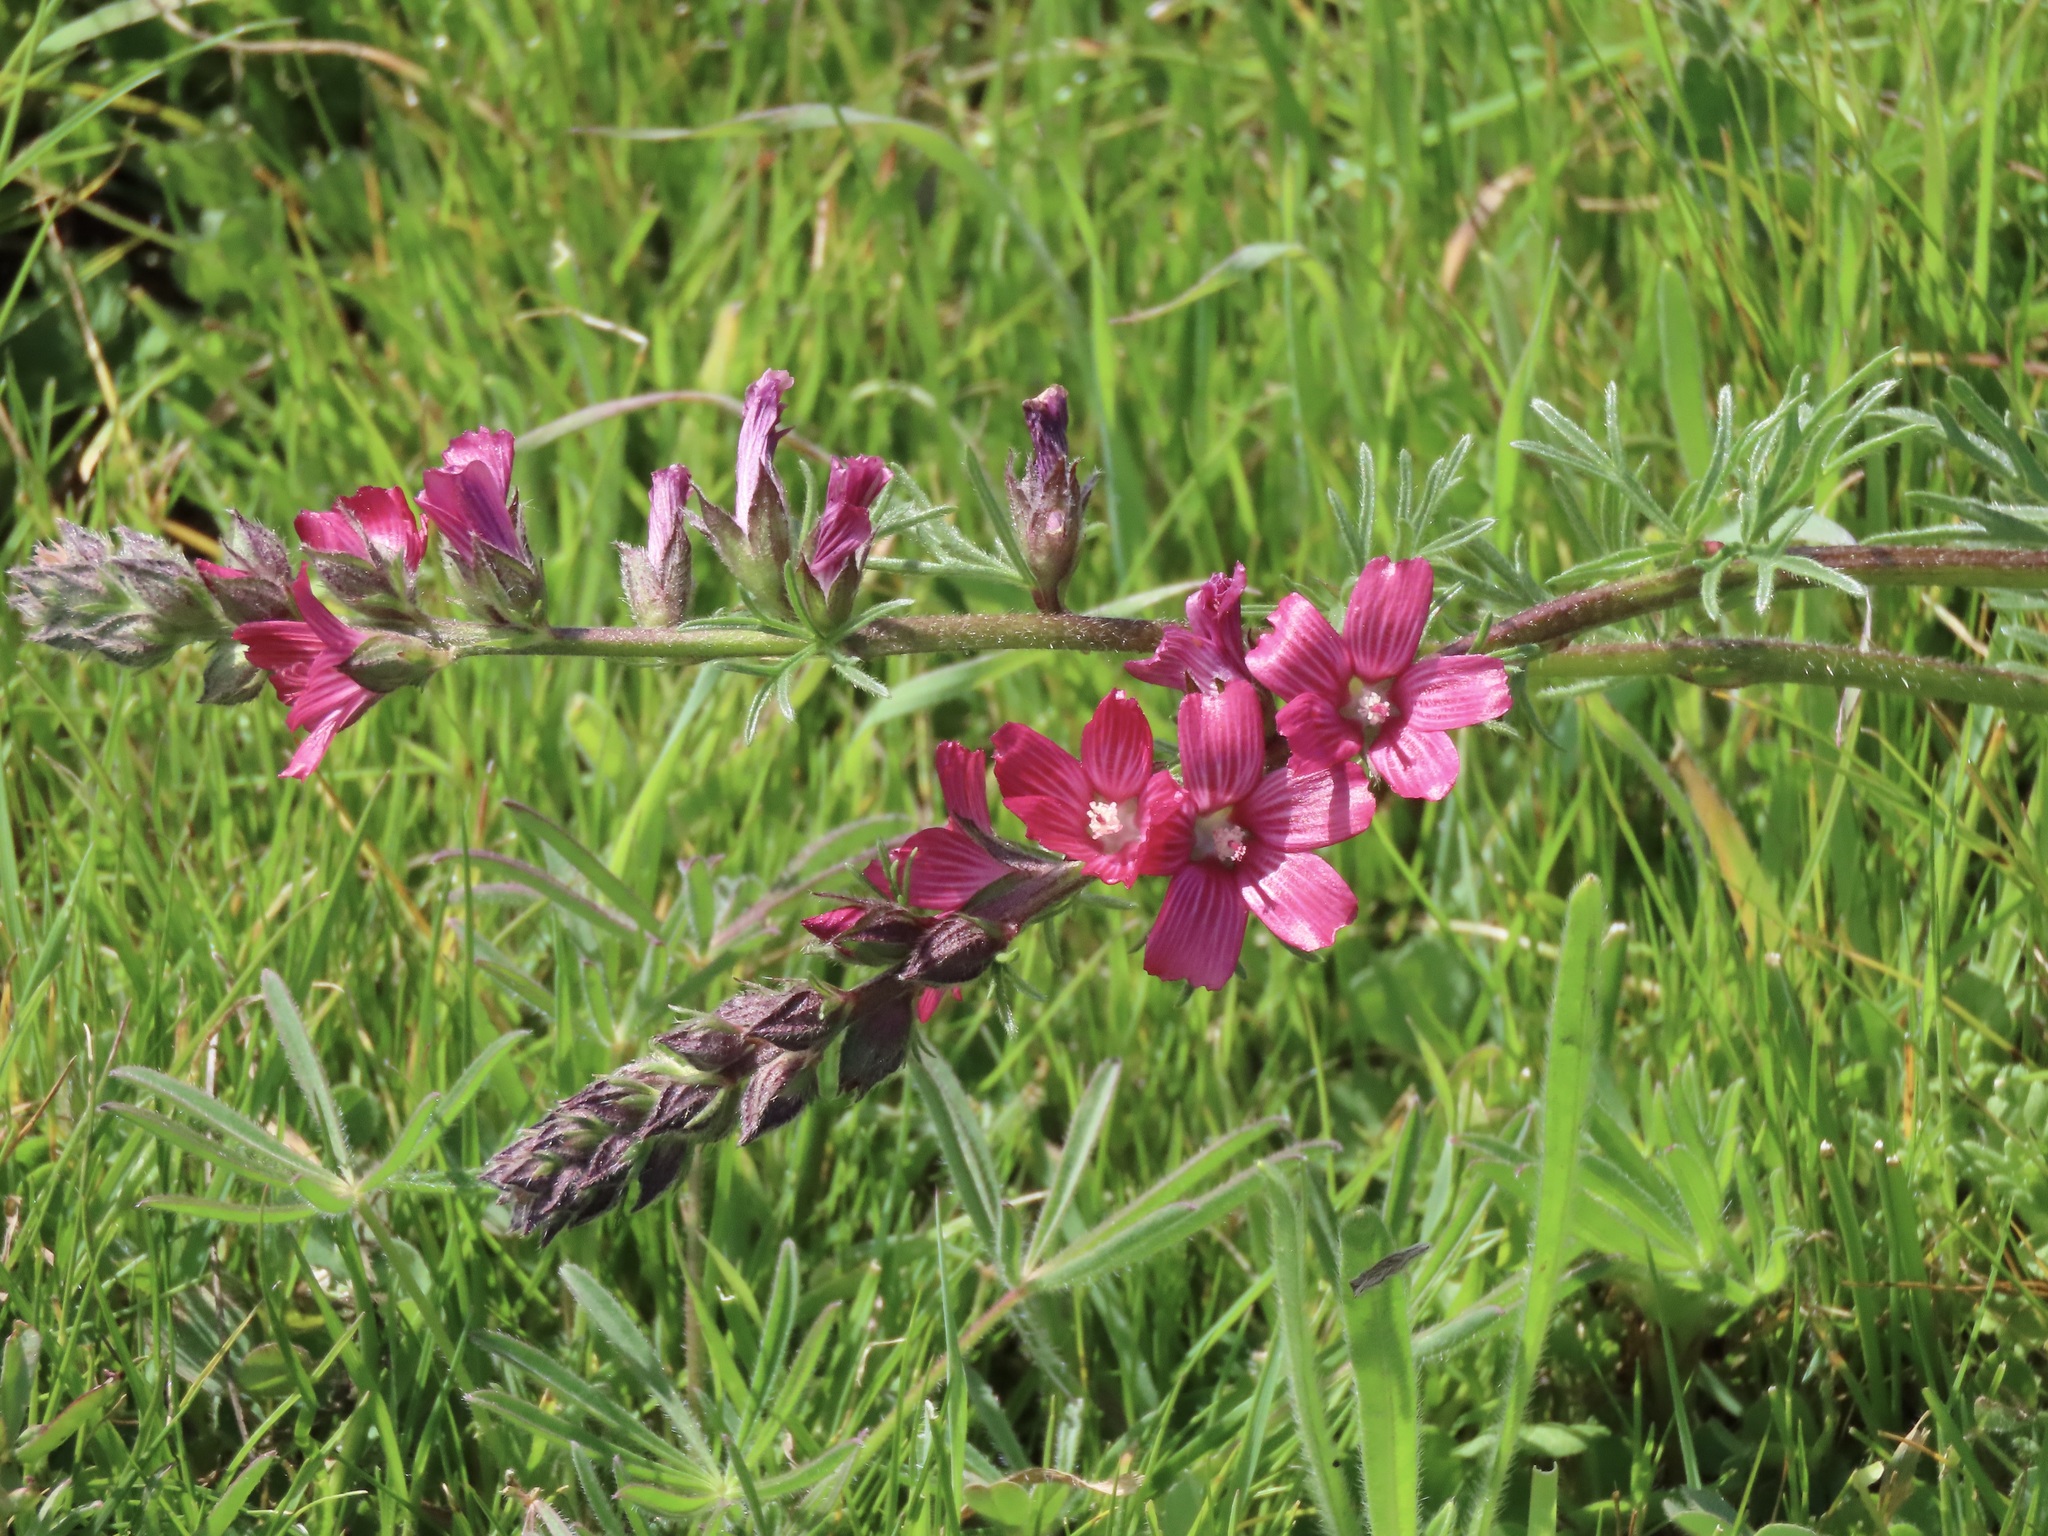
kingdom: Plantae
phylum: Tracheophyta
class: Magnoliopsida
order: Malvales
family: Malvaceae
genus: Sidalcea
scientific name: Sidalcea malviflora
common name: Greek mallow
